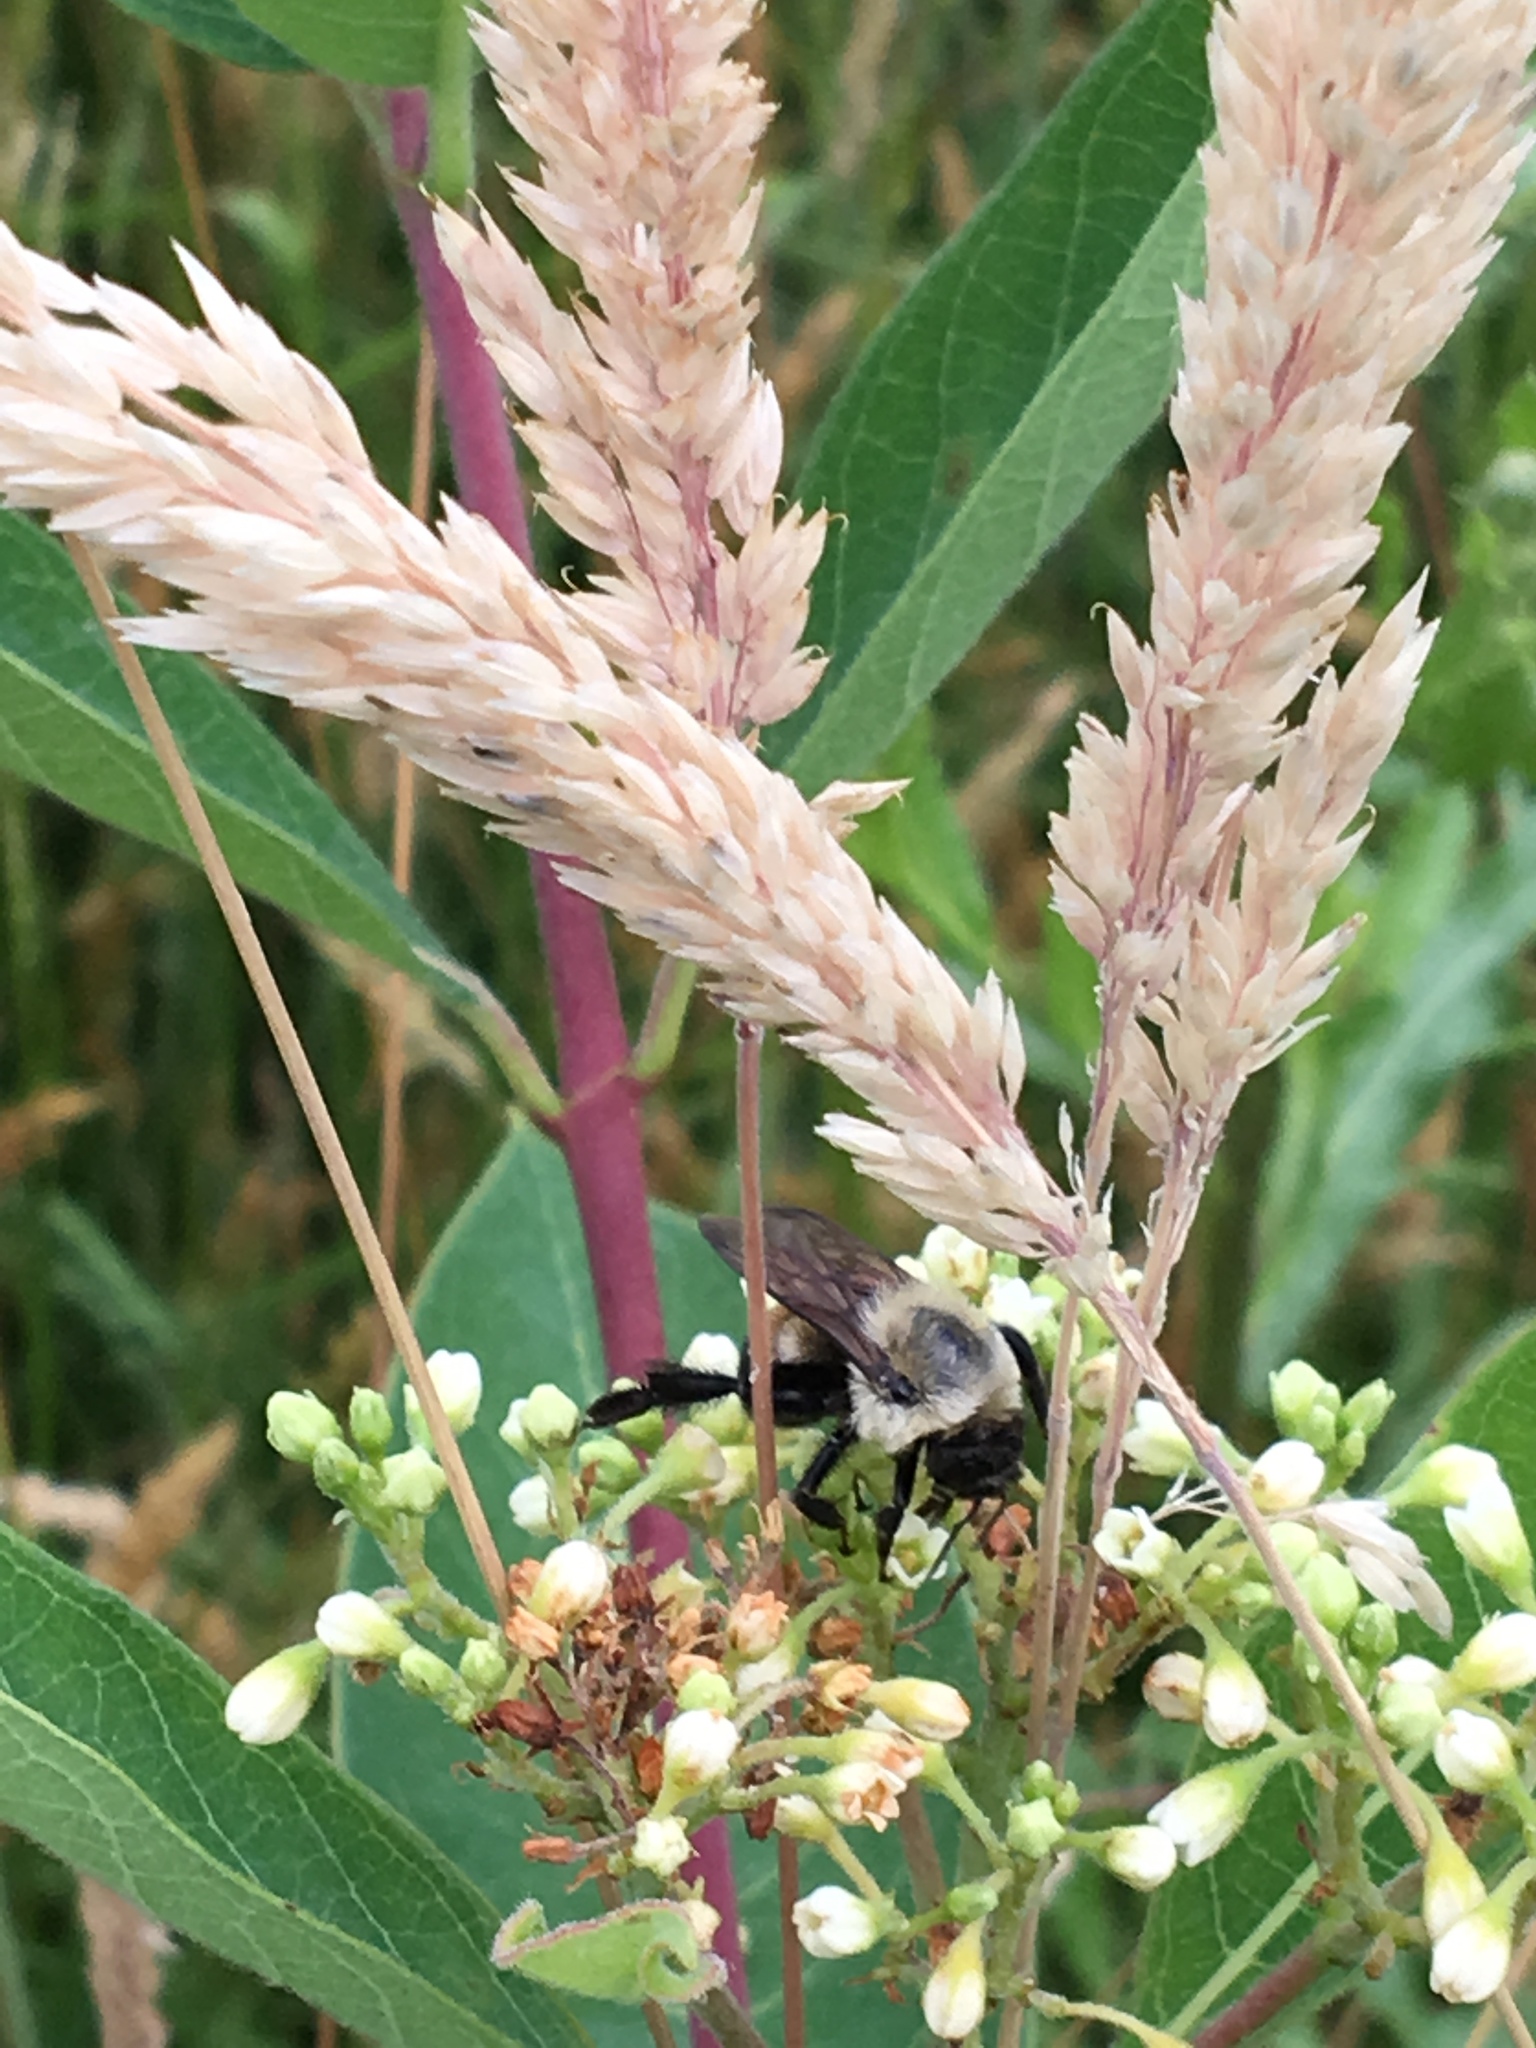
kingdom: Animalia
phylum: Arthropoda
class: Insecta
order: Hymenoptera
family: Apidae
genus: Bombus
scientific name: Bombus griseocollis
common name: Brown-belted bumble bee
